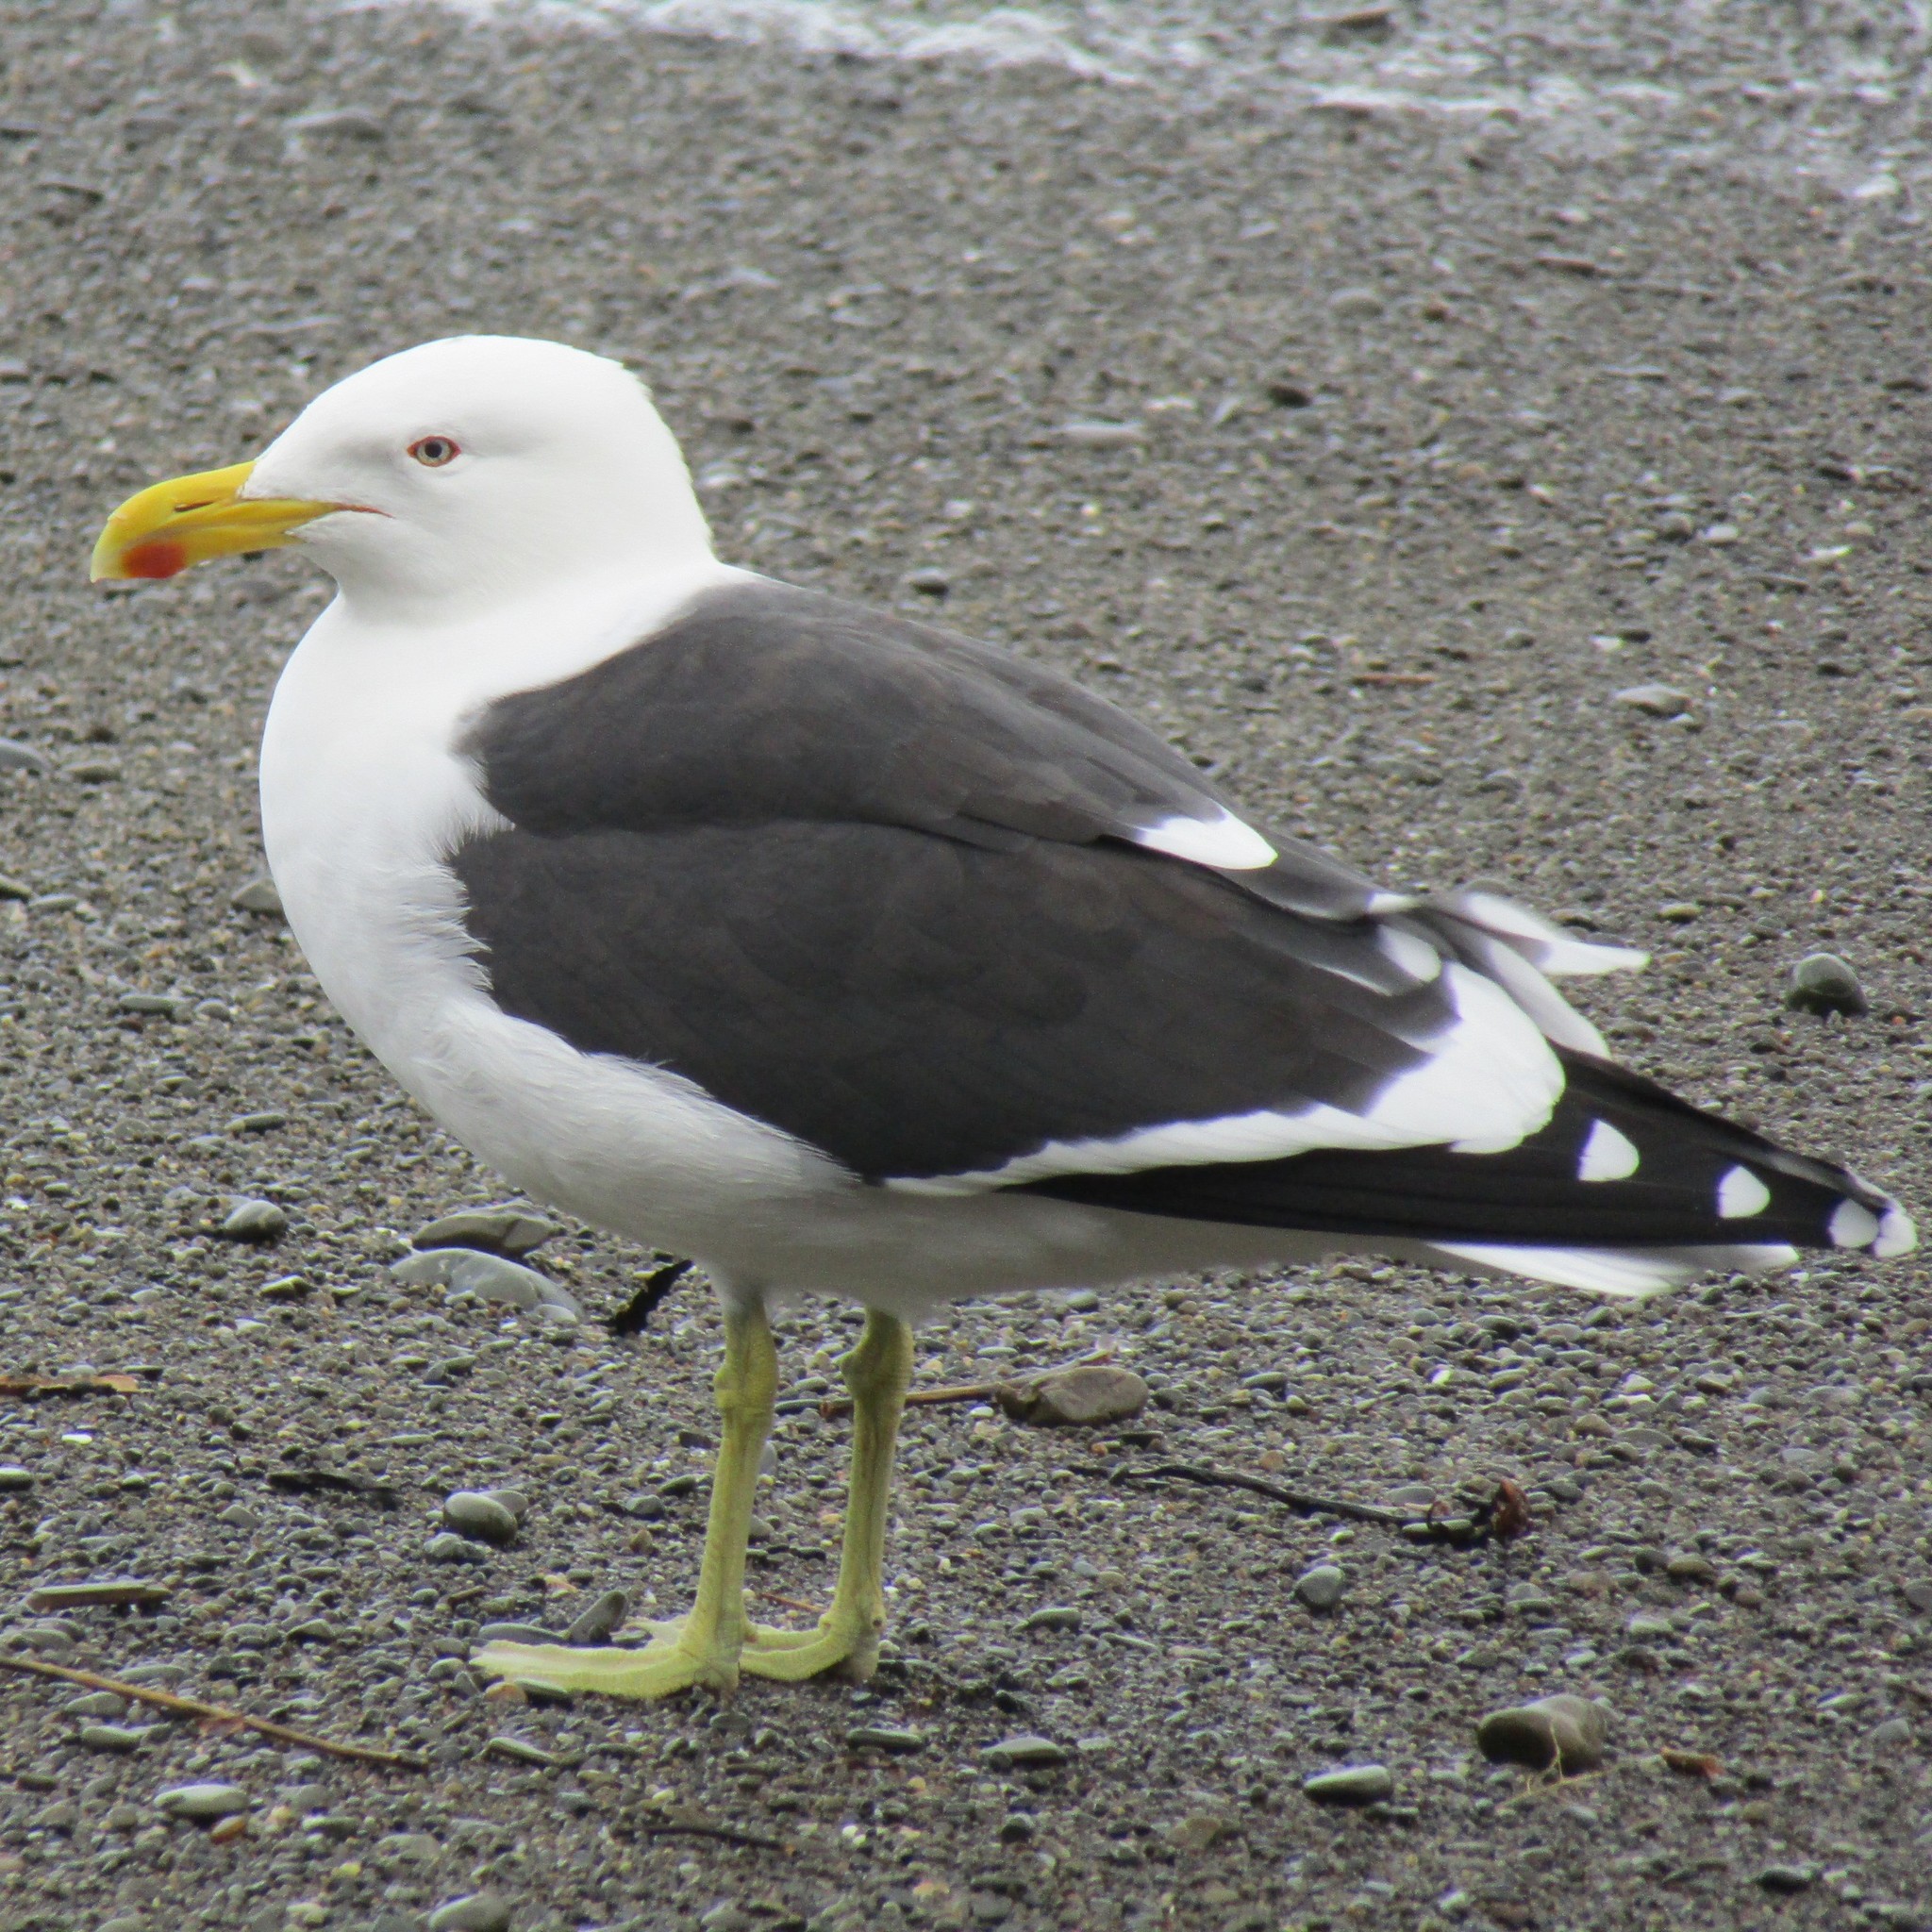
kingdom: Animalia
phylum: Chordata
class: Aves
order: Charadriiformes
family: Laridae
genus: Larus
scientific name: Larus dominicanus
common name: Kelp gull
